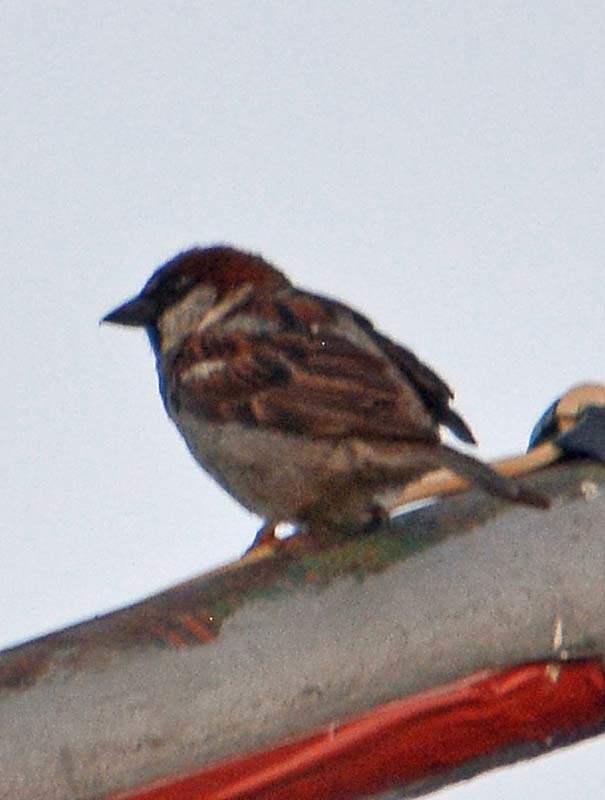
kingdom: Animalia
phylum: Chordata
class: Aves
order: Passeriformes
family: Passeridae
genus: Passer
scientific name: Passer domesticus
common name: House sparrow
